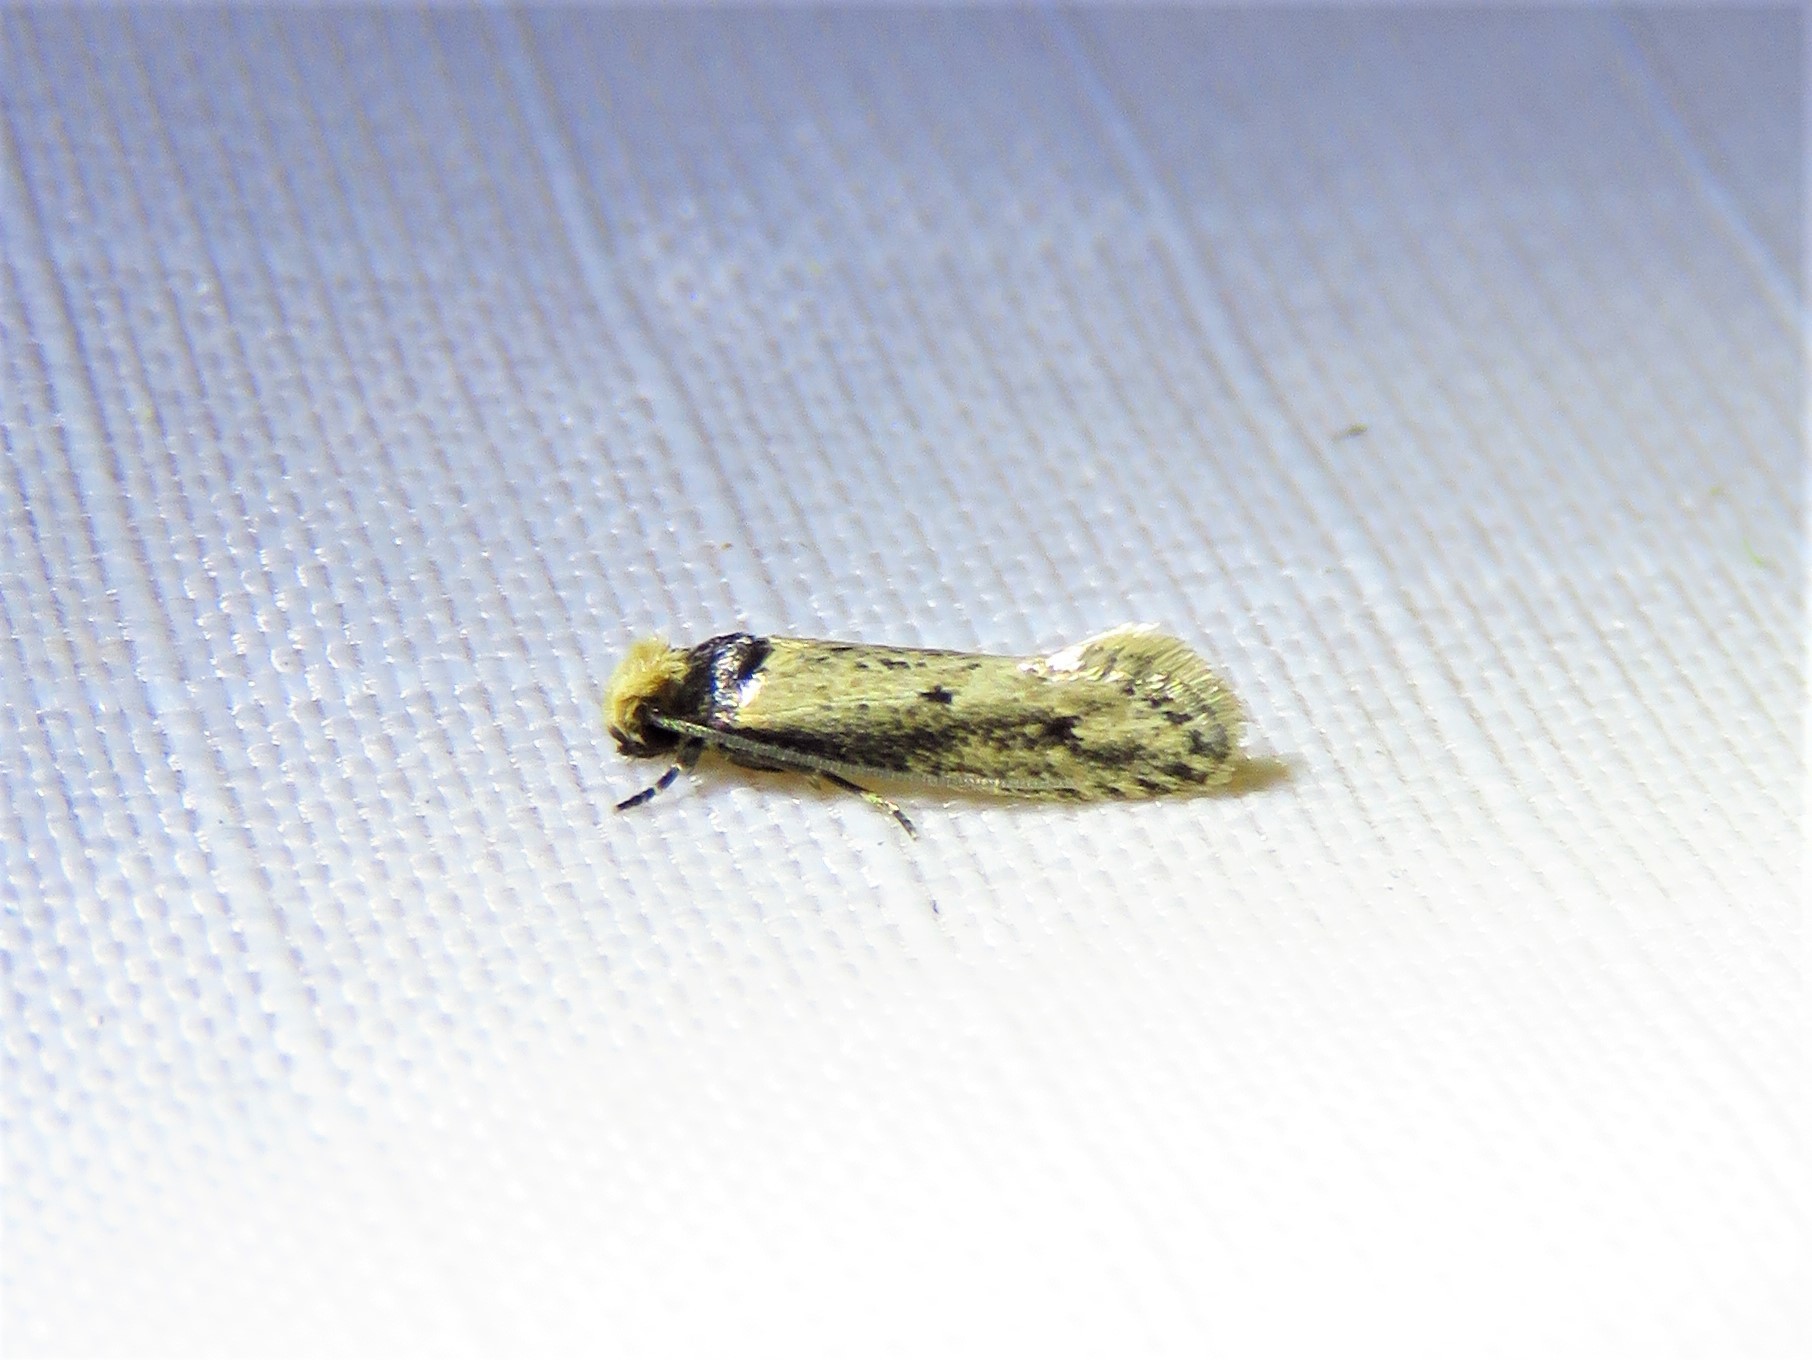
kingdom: Animalia
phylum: Arthropoda
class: Insecta
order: Lepidoptera
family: Tineidae
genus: Tinea
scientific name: Tinea apicimaculella
